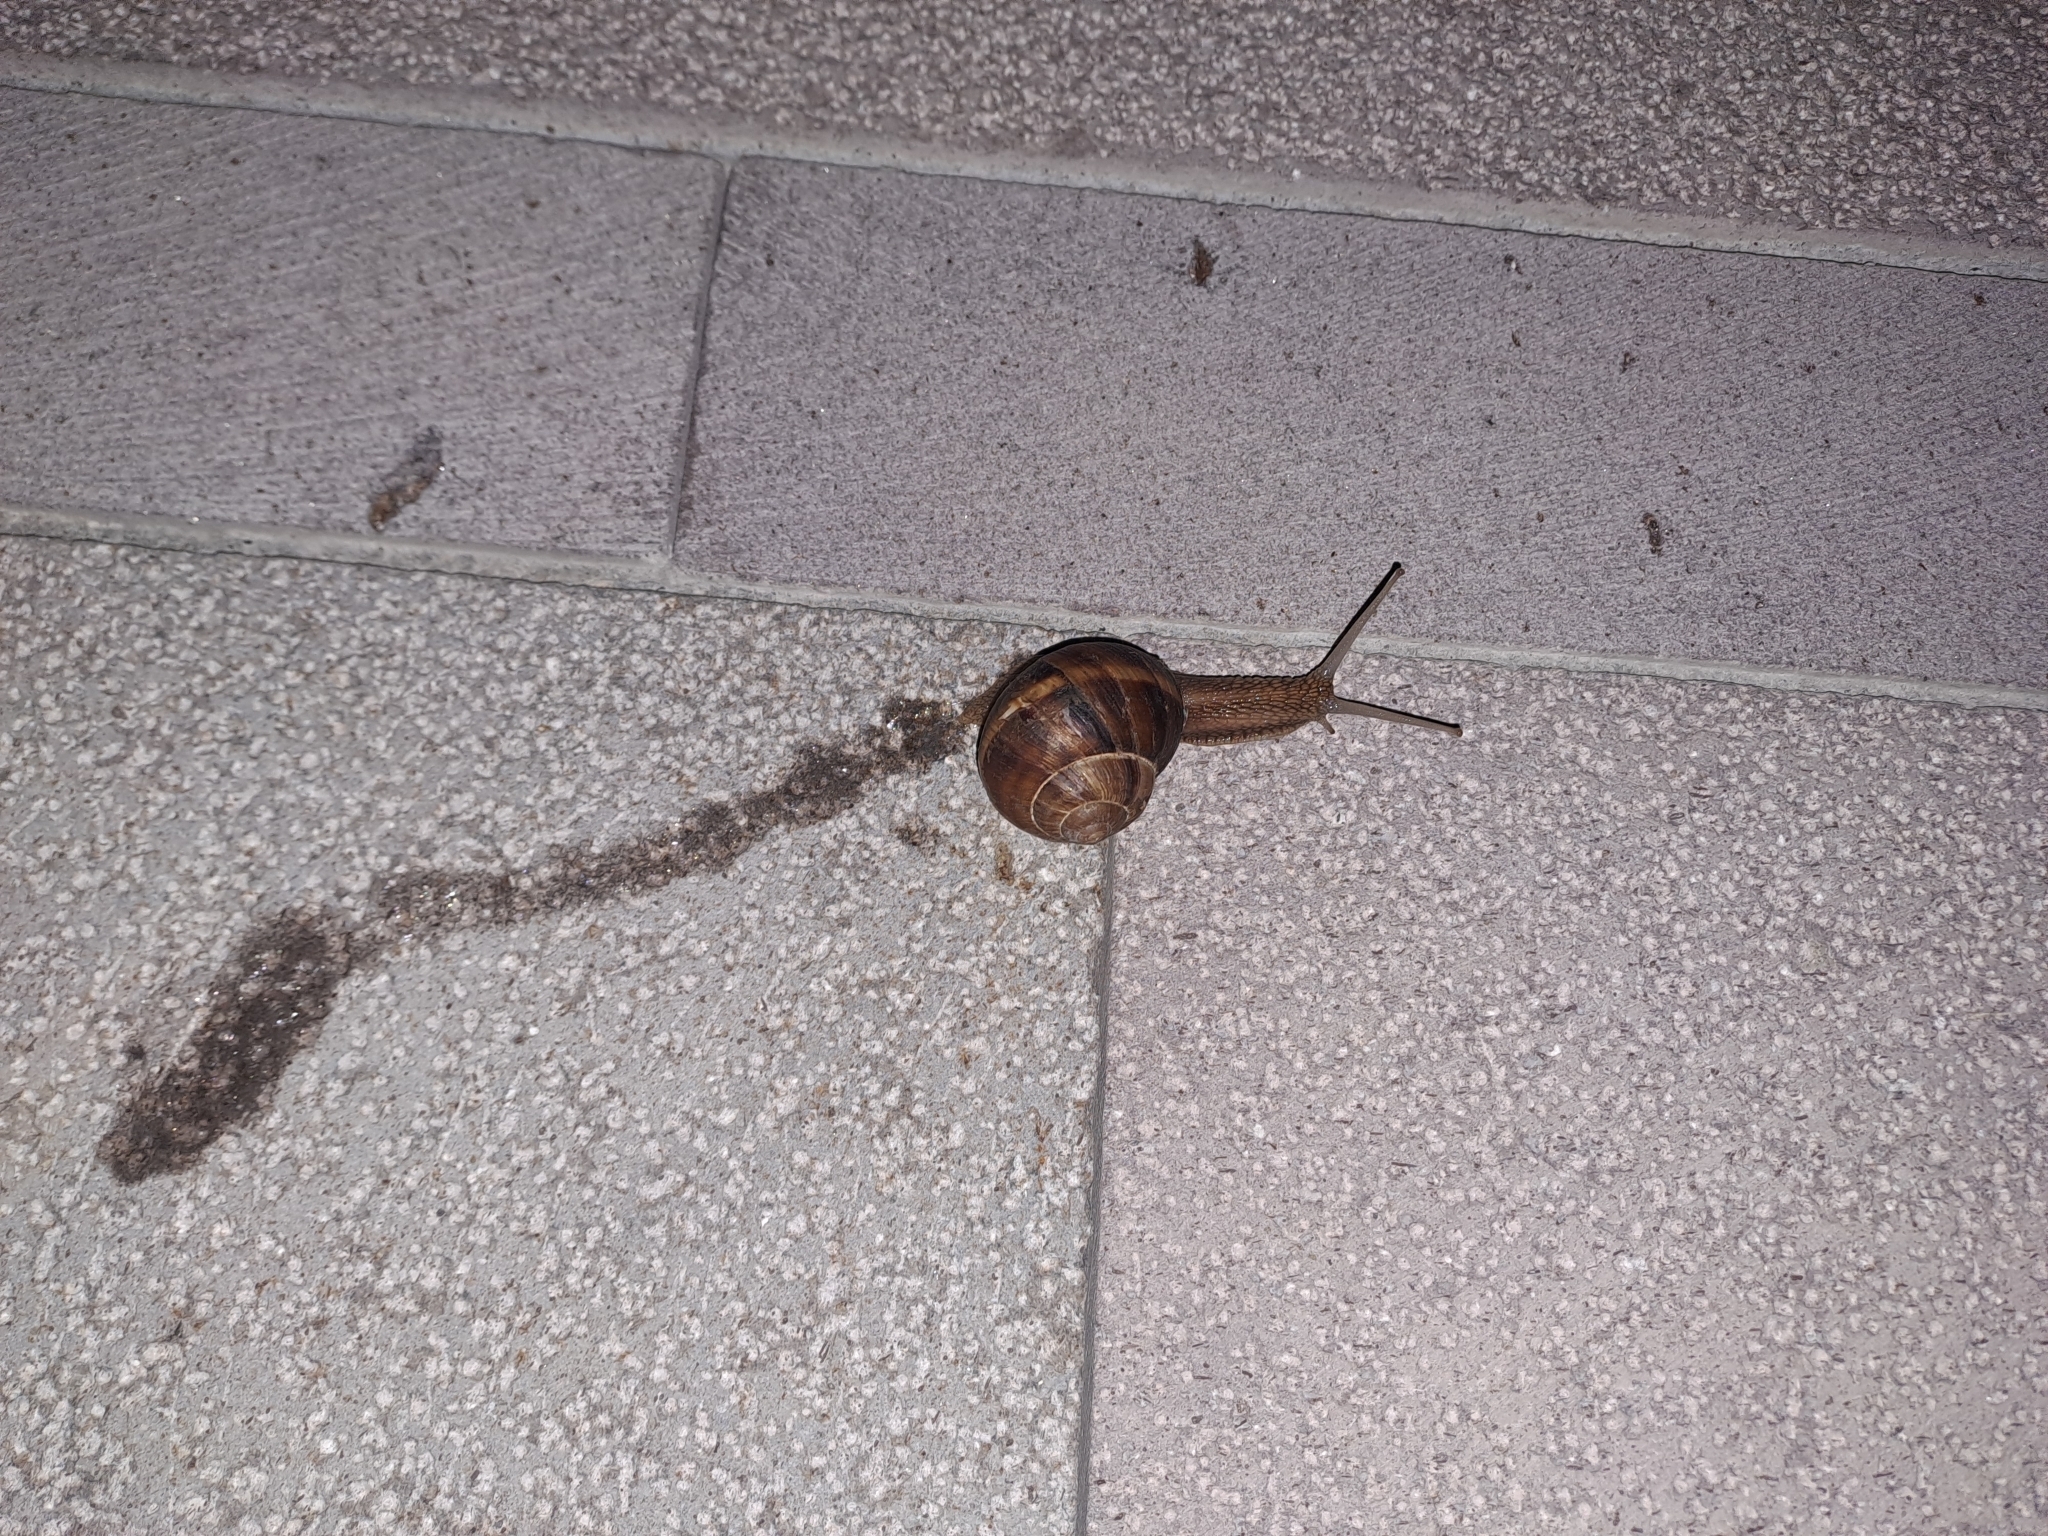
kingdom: Animalia
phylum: Mollusca
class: Gastropoda
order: Stylommatophora
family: Helicidae
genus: Helix
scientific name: Helix lucorum
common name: Turkish snail
